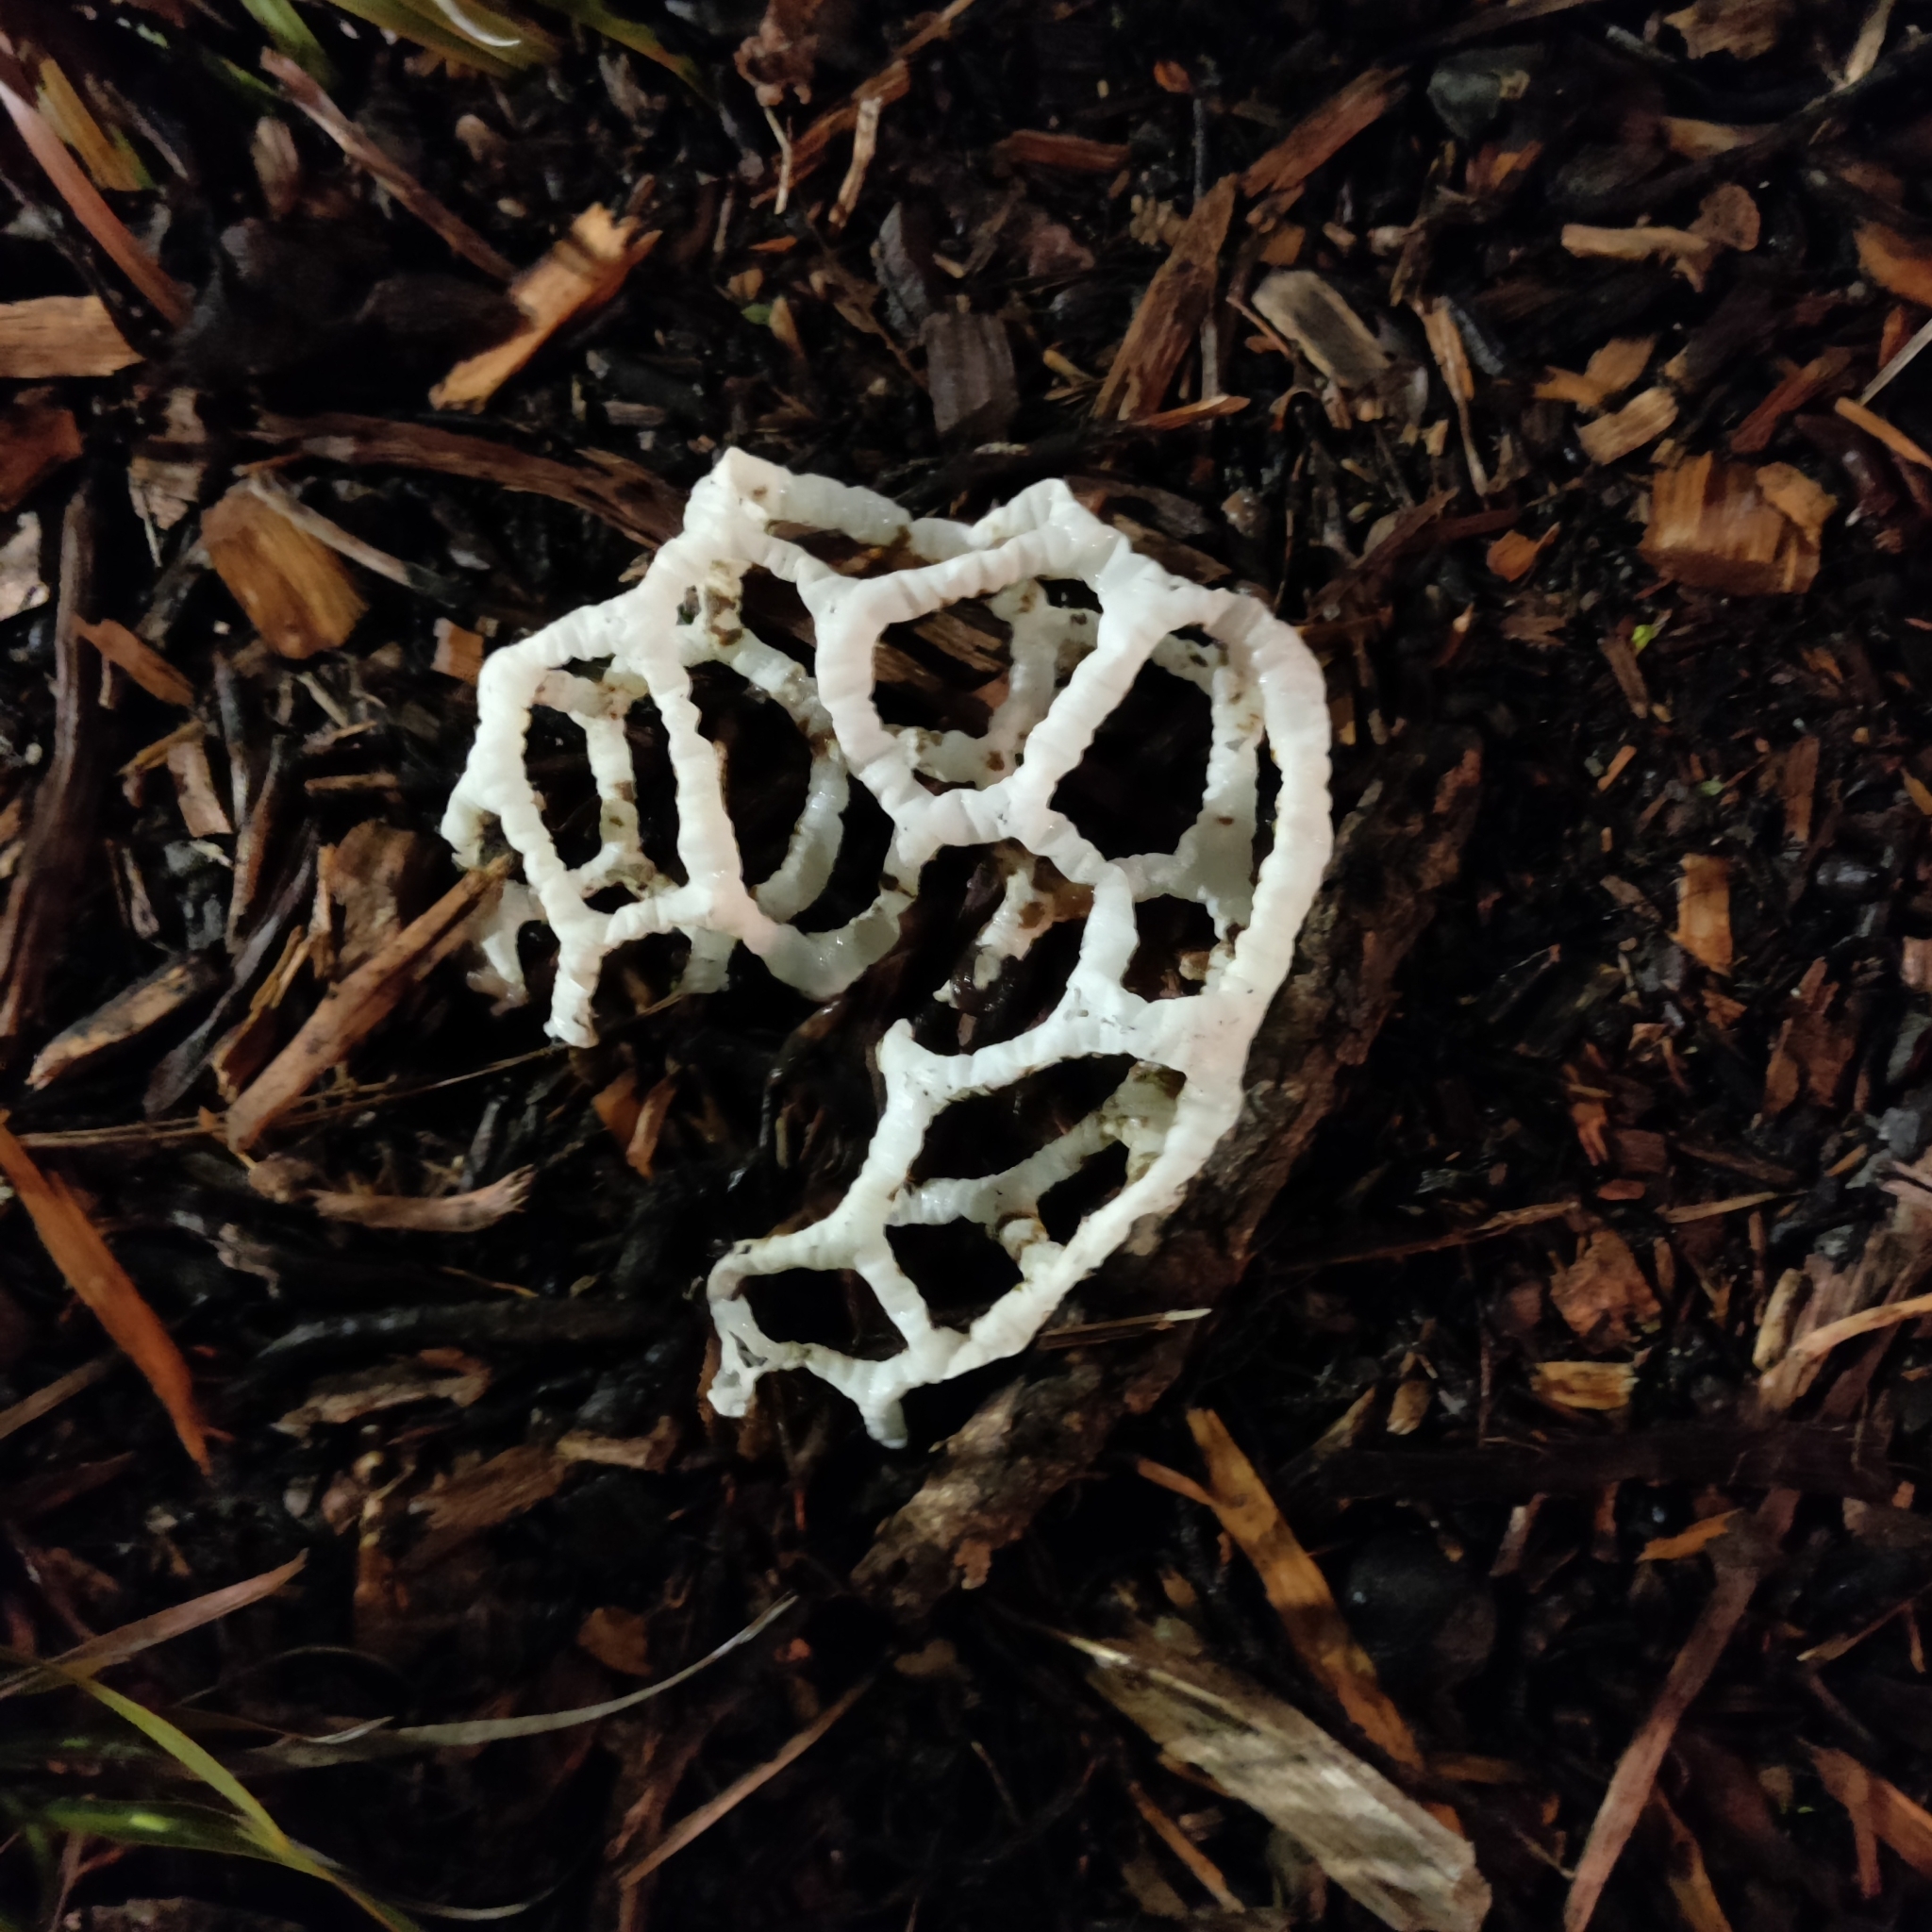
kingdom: Fungi
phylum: Basidiomycota
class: Agaricomycetes
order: Phallales
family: Phallaceae
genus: Ileodictyon
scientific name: Ileodictyon cibarium
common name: Basket fungus
